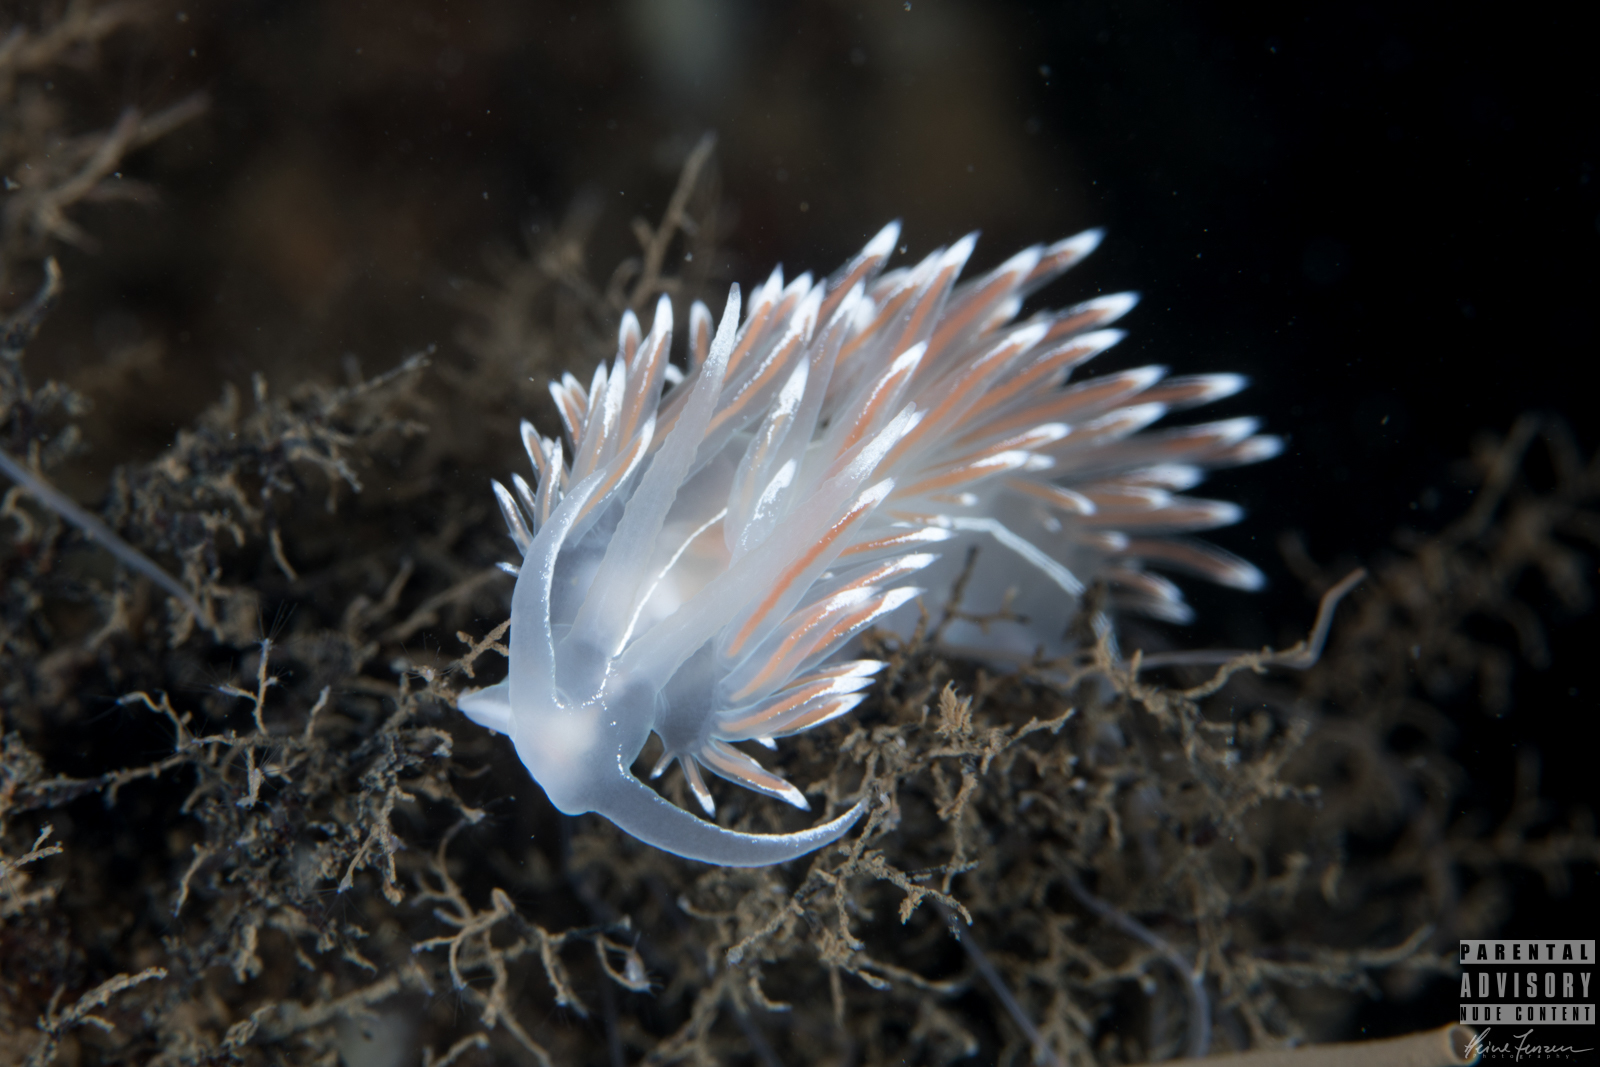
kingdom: Animalia
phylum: Mollusca
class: Gastropoda
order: Nudibranchia
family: Coryphellidae
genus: Coryphella
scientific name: Coryphella lineata
